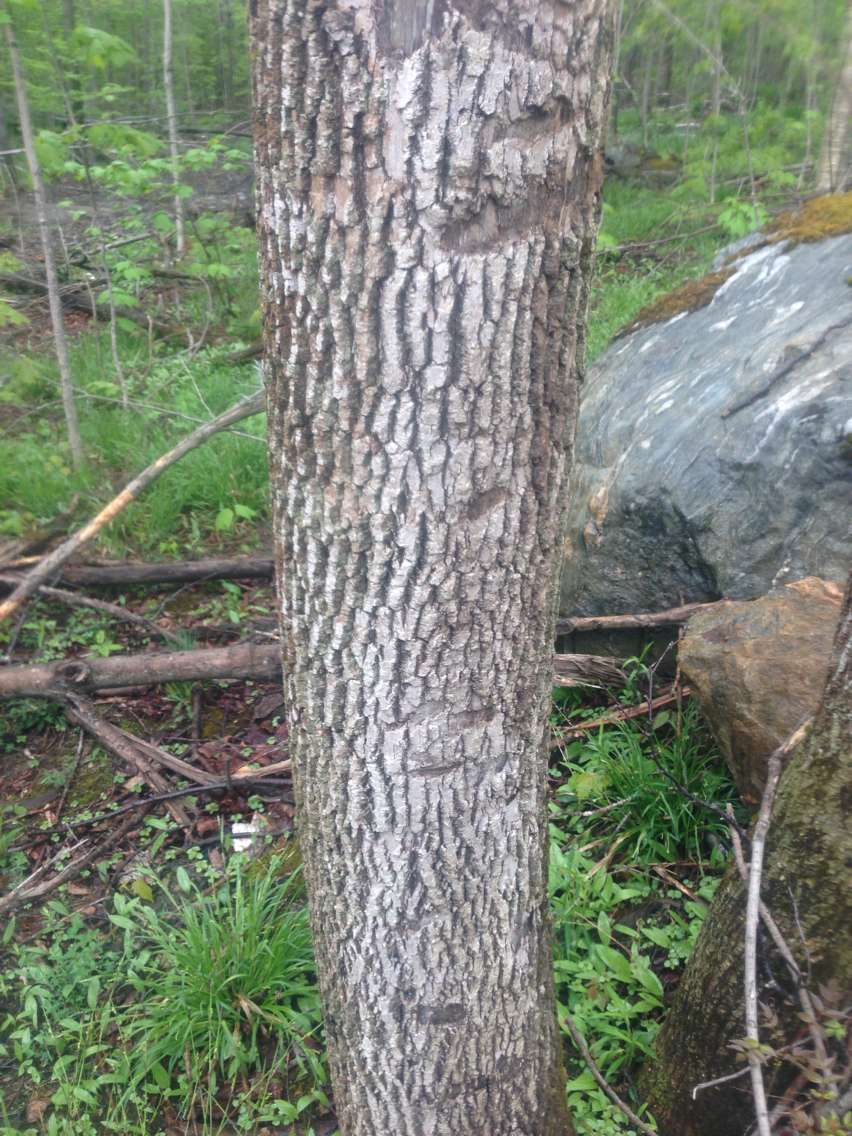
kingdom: Plantae
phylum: Tracheophyta
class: Magnoliopsida
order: Lamiales
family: Oleaceae
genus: Fraxinus
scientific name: Fraxinus americana
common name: White ash
